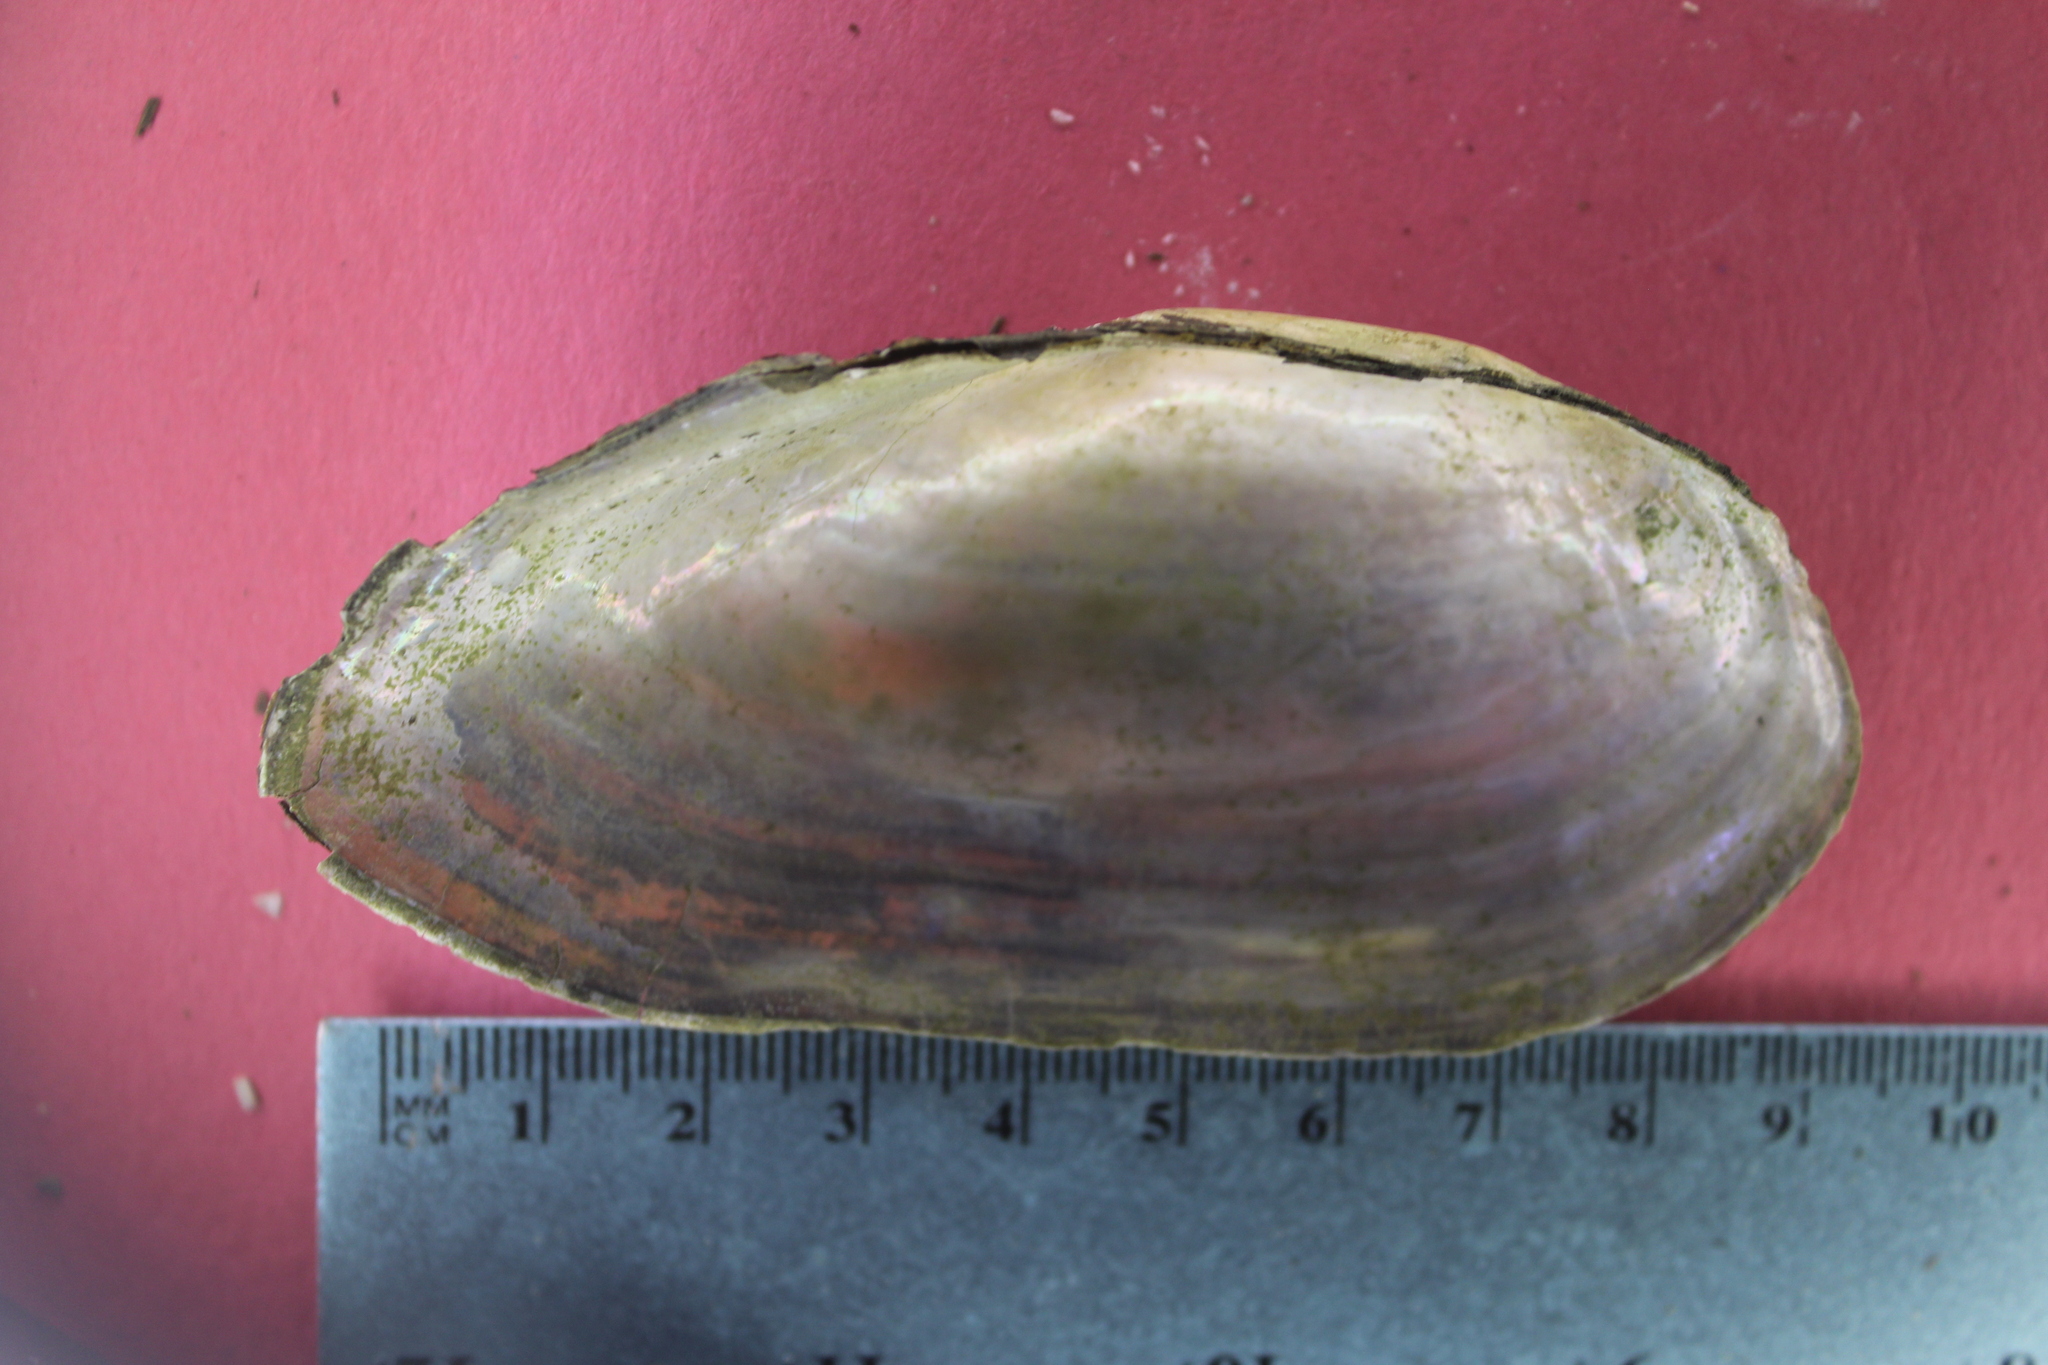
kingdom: Animalia
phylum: Mollusca
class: Bivalvia
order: Unionida
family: Unionidae
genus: Utterbackia
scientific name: Utterbackia imbecillis
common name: Paper pondshell
